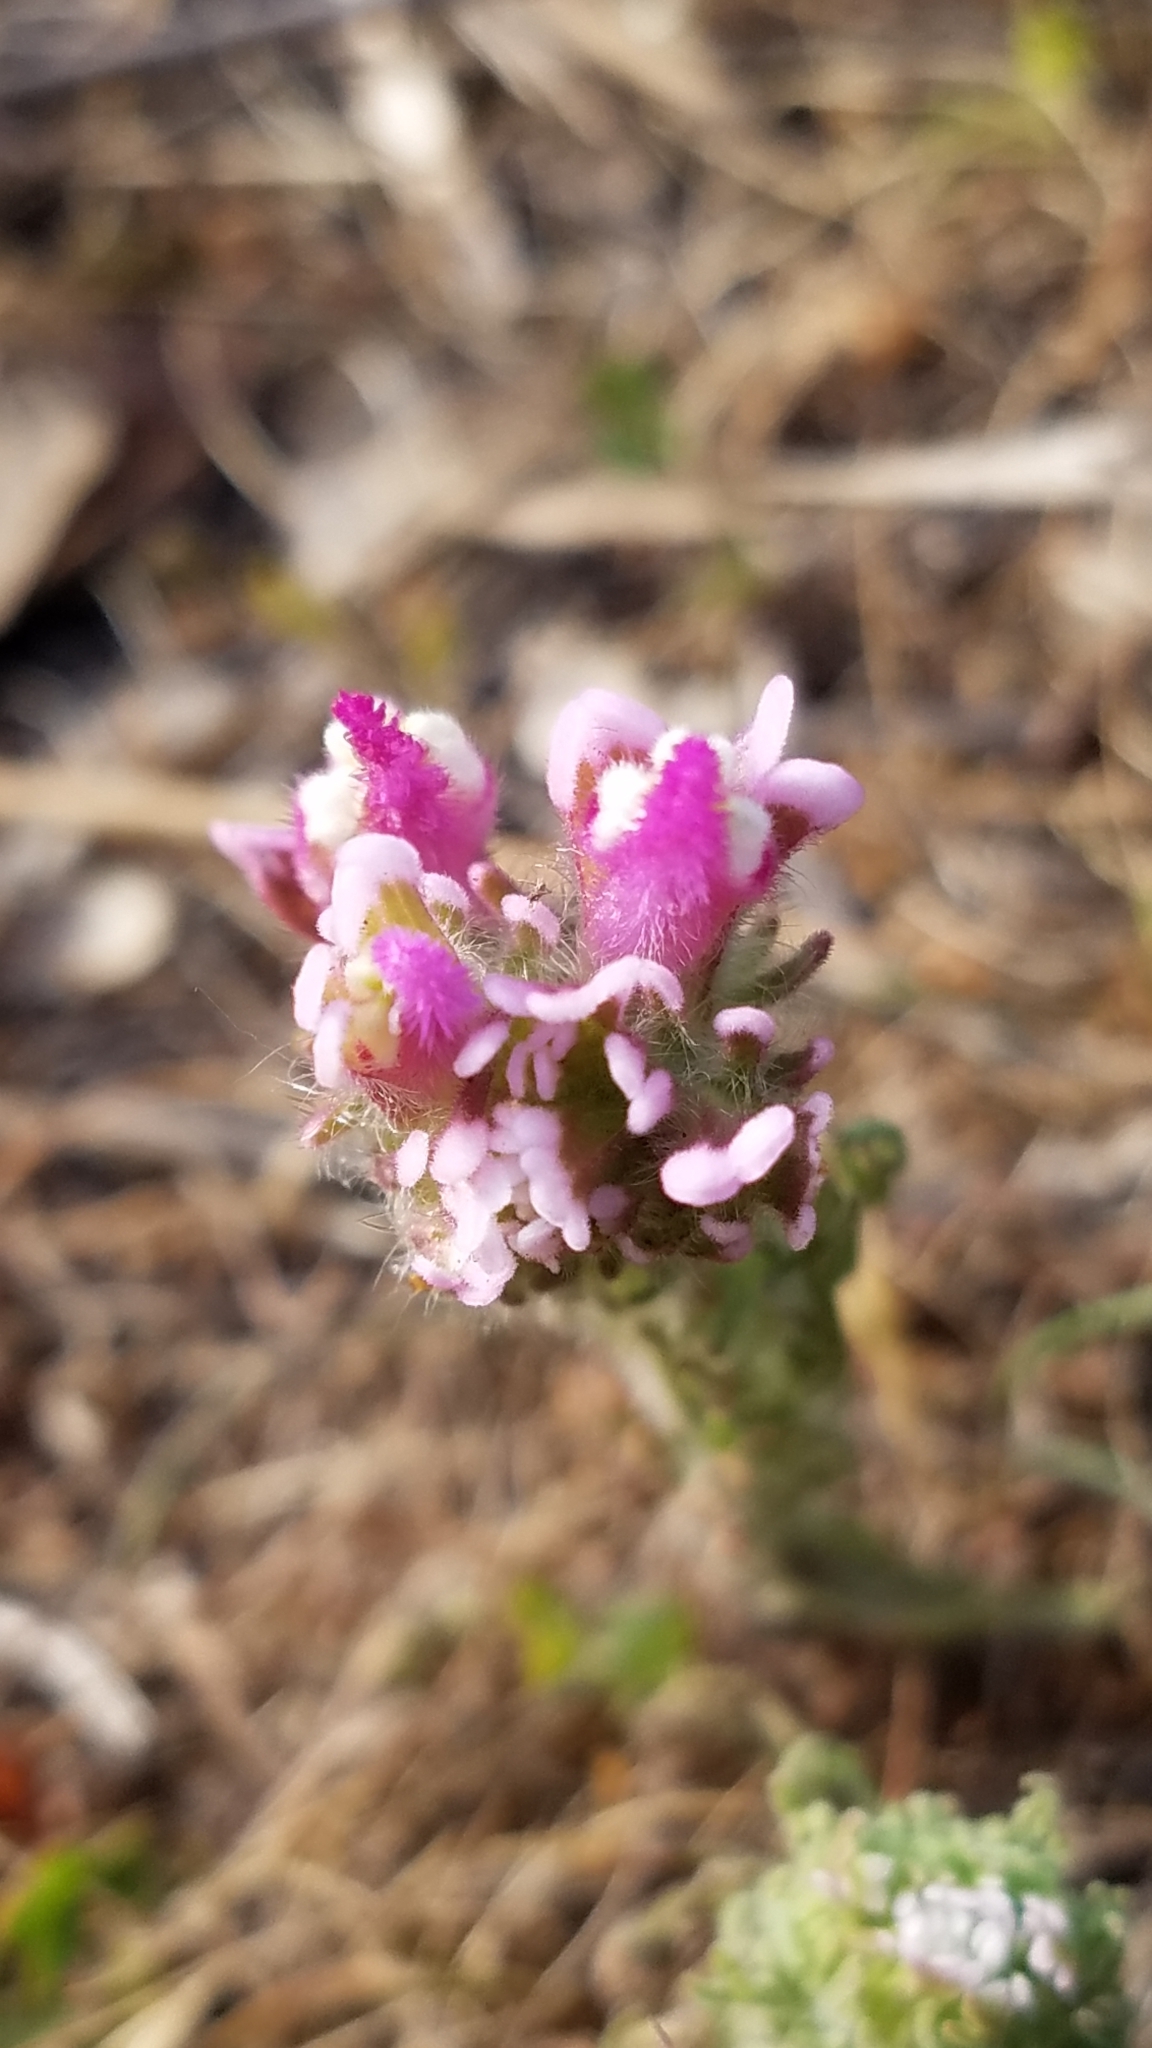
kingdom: Plantae
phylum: Tracheophyta
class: Magnoliopsida
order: Lamiales
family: Orobanchaceae
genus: Castilleja
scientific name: Castilleja exserta
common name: Purple owl-clover
